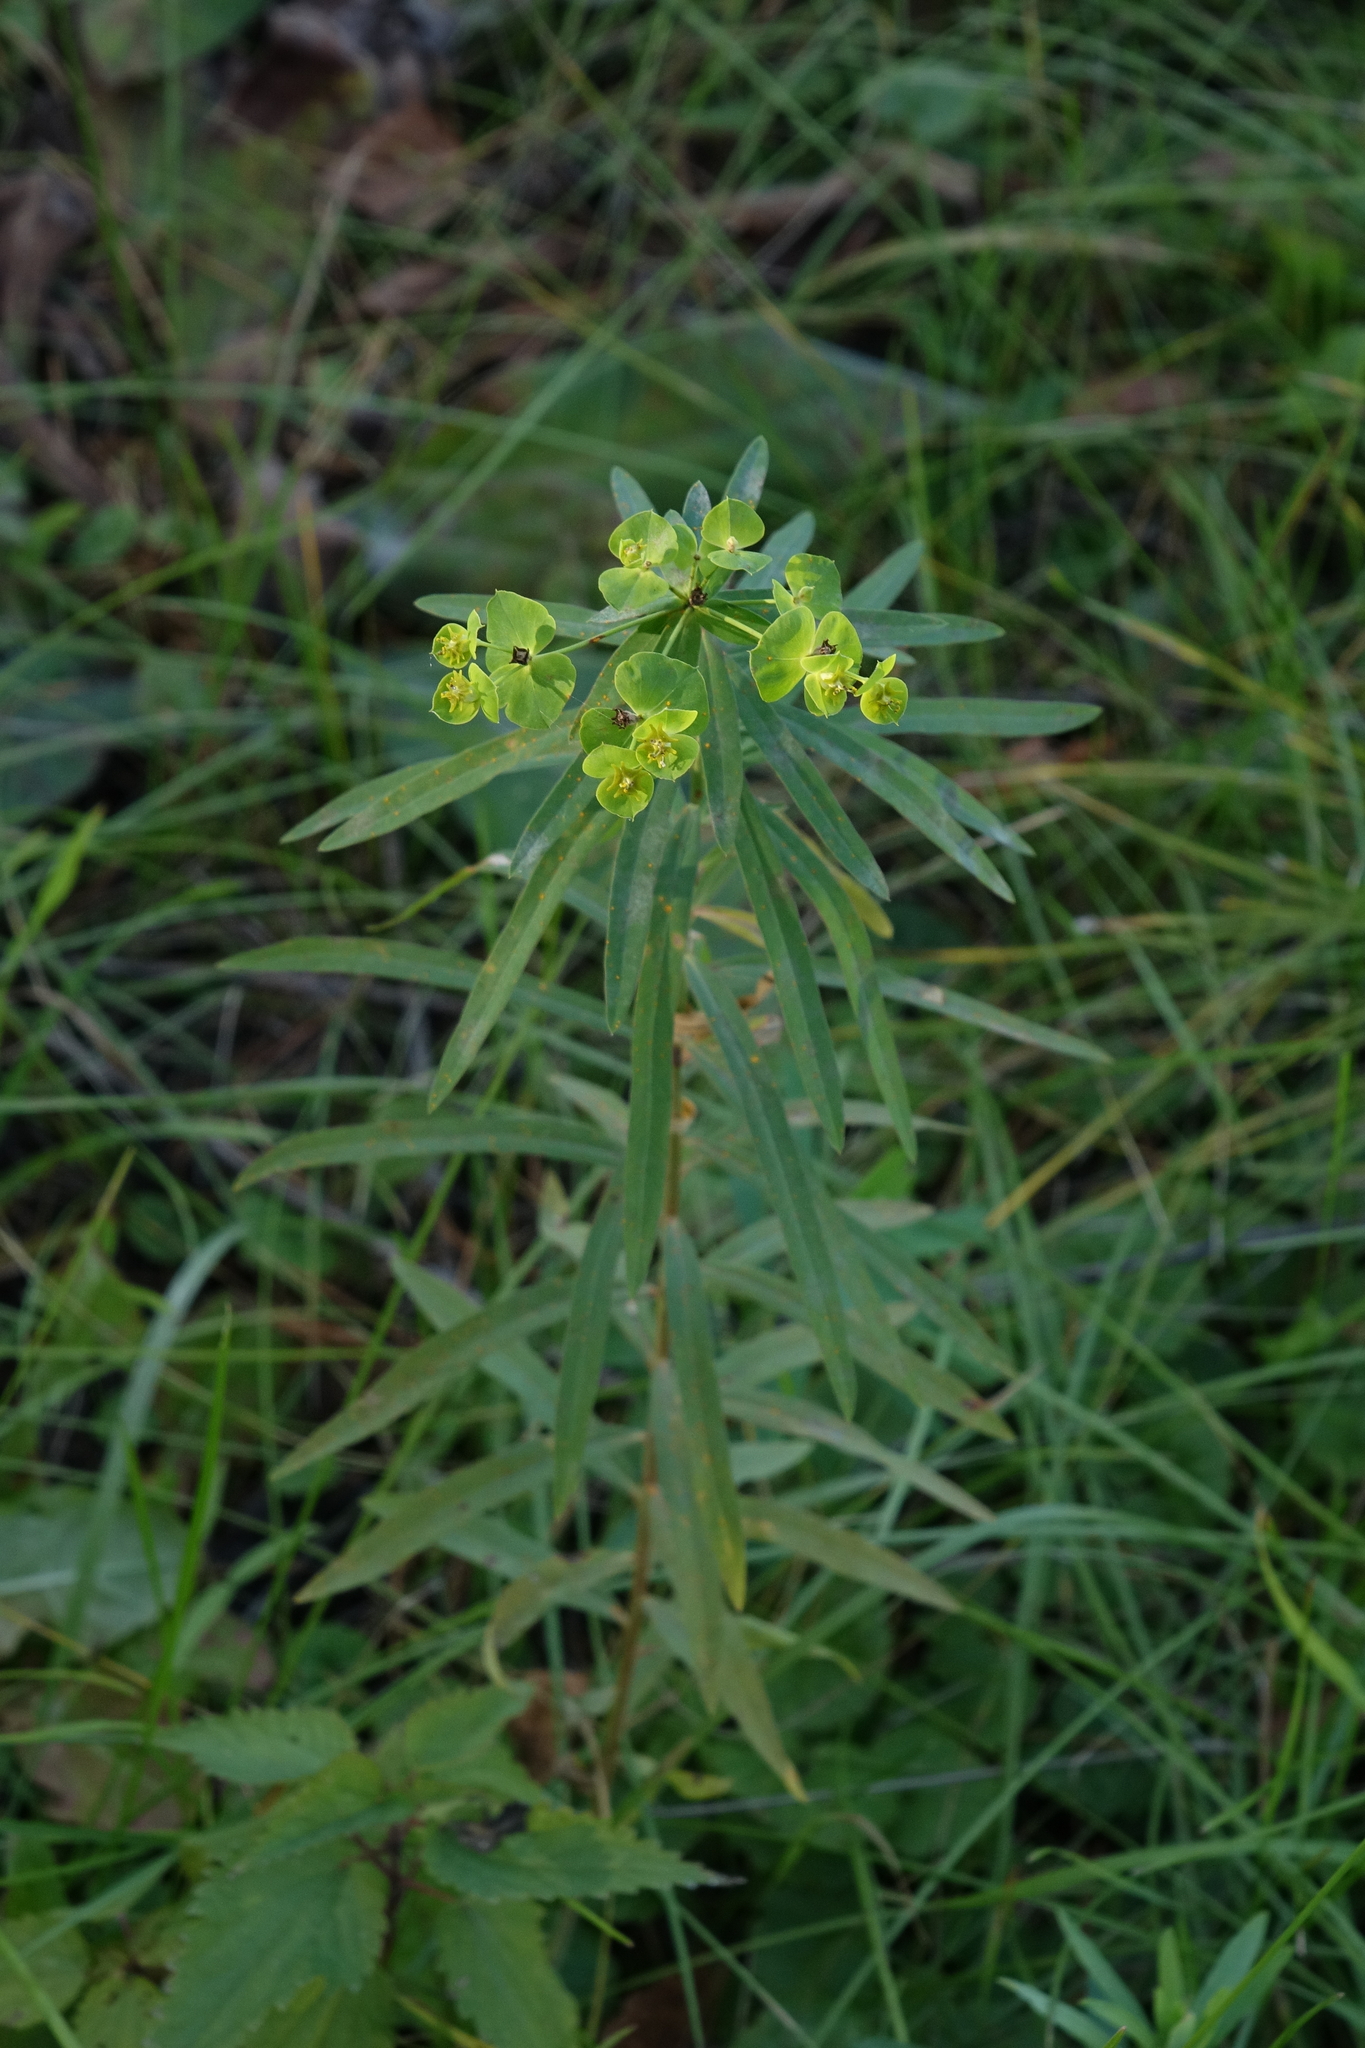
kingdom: Plantae
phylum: Tracheophyta
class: Magnoliopsida
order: Malpighiales
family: Euphorbiaceae
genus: Euphorbia
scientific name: Euphorbia virgata
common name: Leafy spurge
